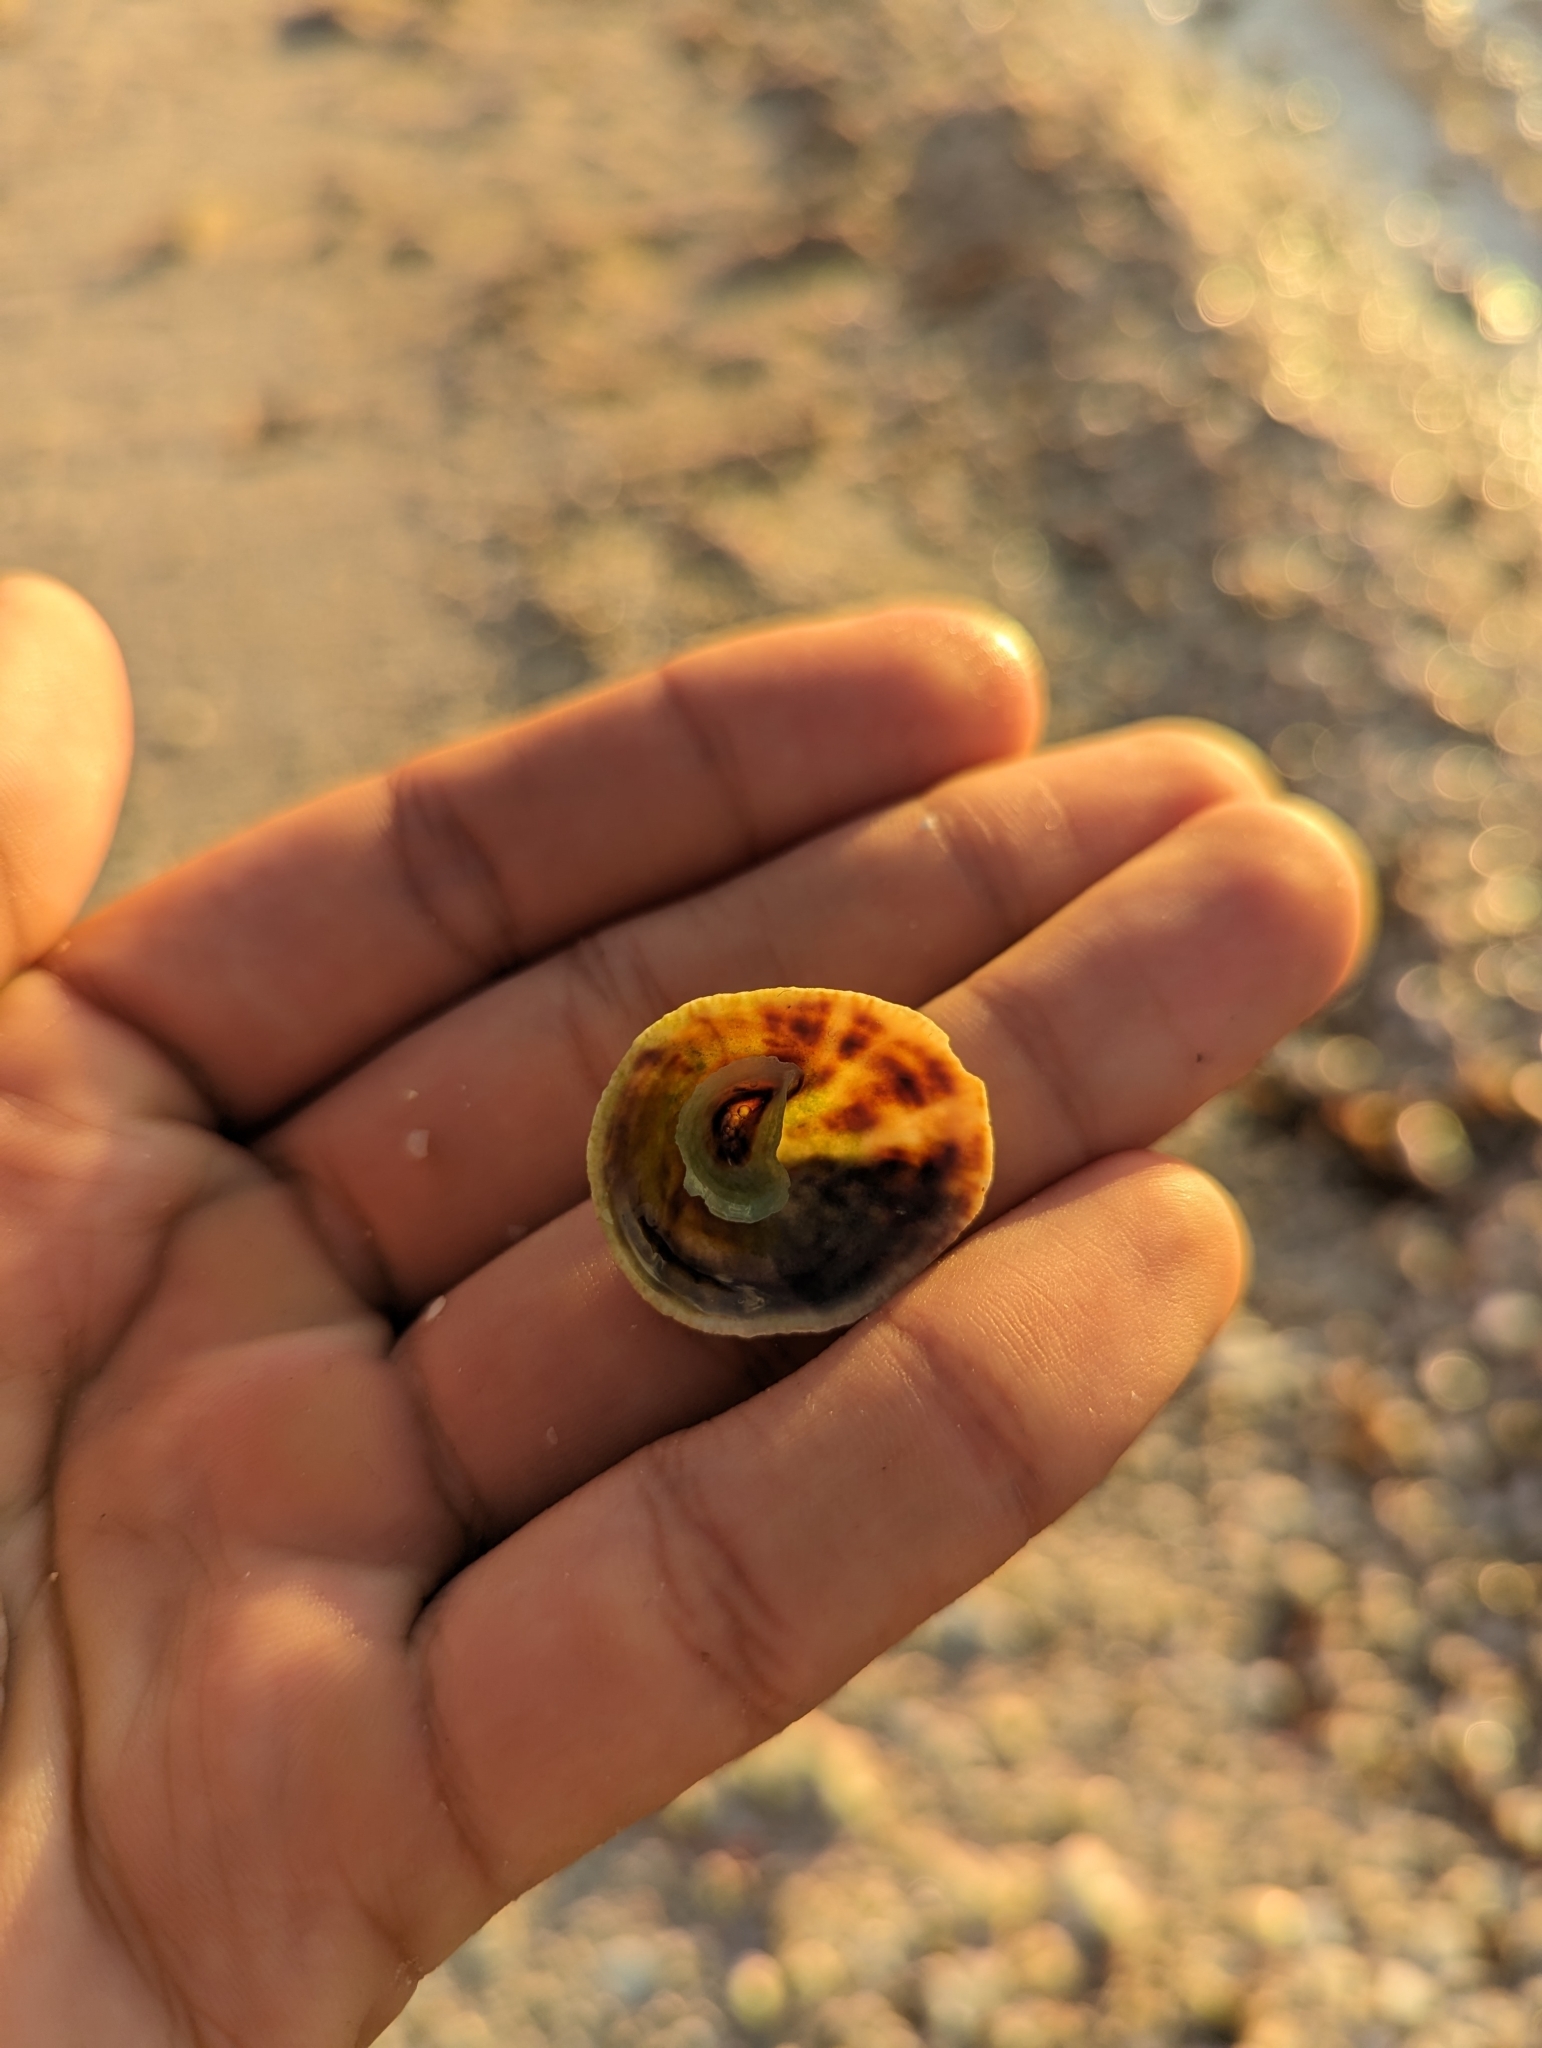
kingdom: Animalia
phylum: Mollusca
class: Gastropoda
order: Littorinimorpha
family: Calyptraeidae
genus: Crucibulum
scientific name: Crucibulum spinosum
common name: Spiny cup-and-saucer
